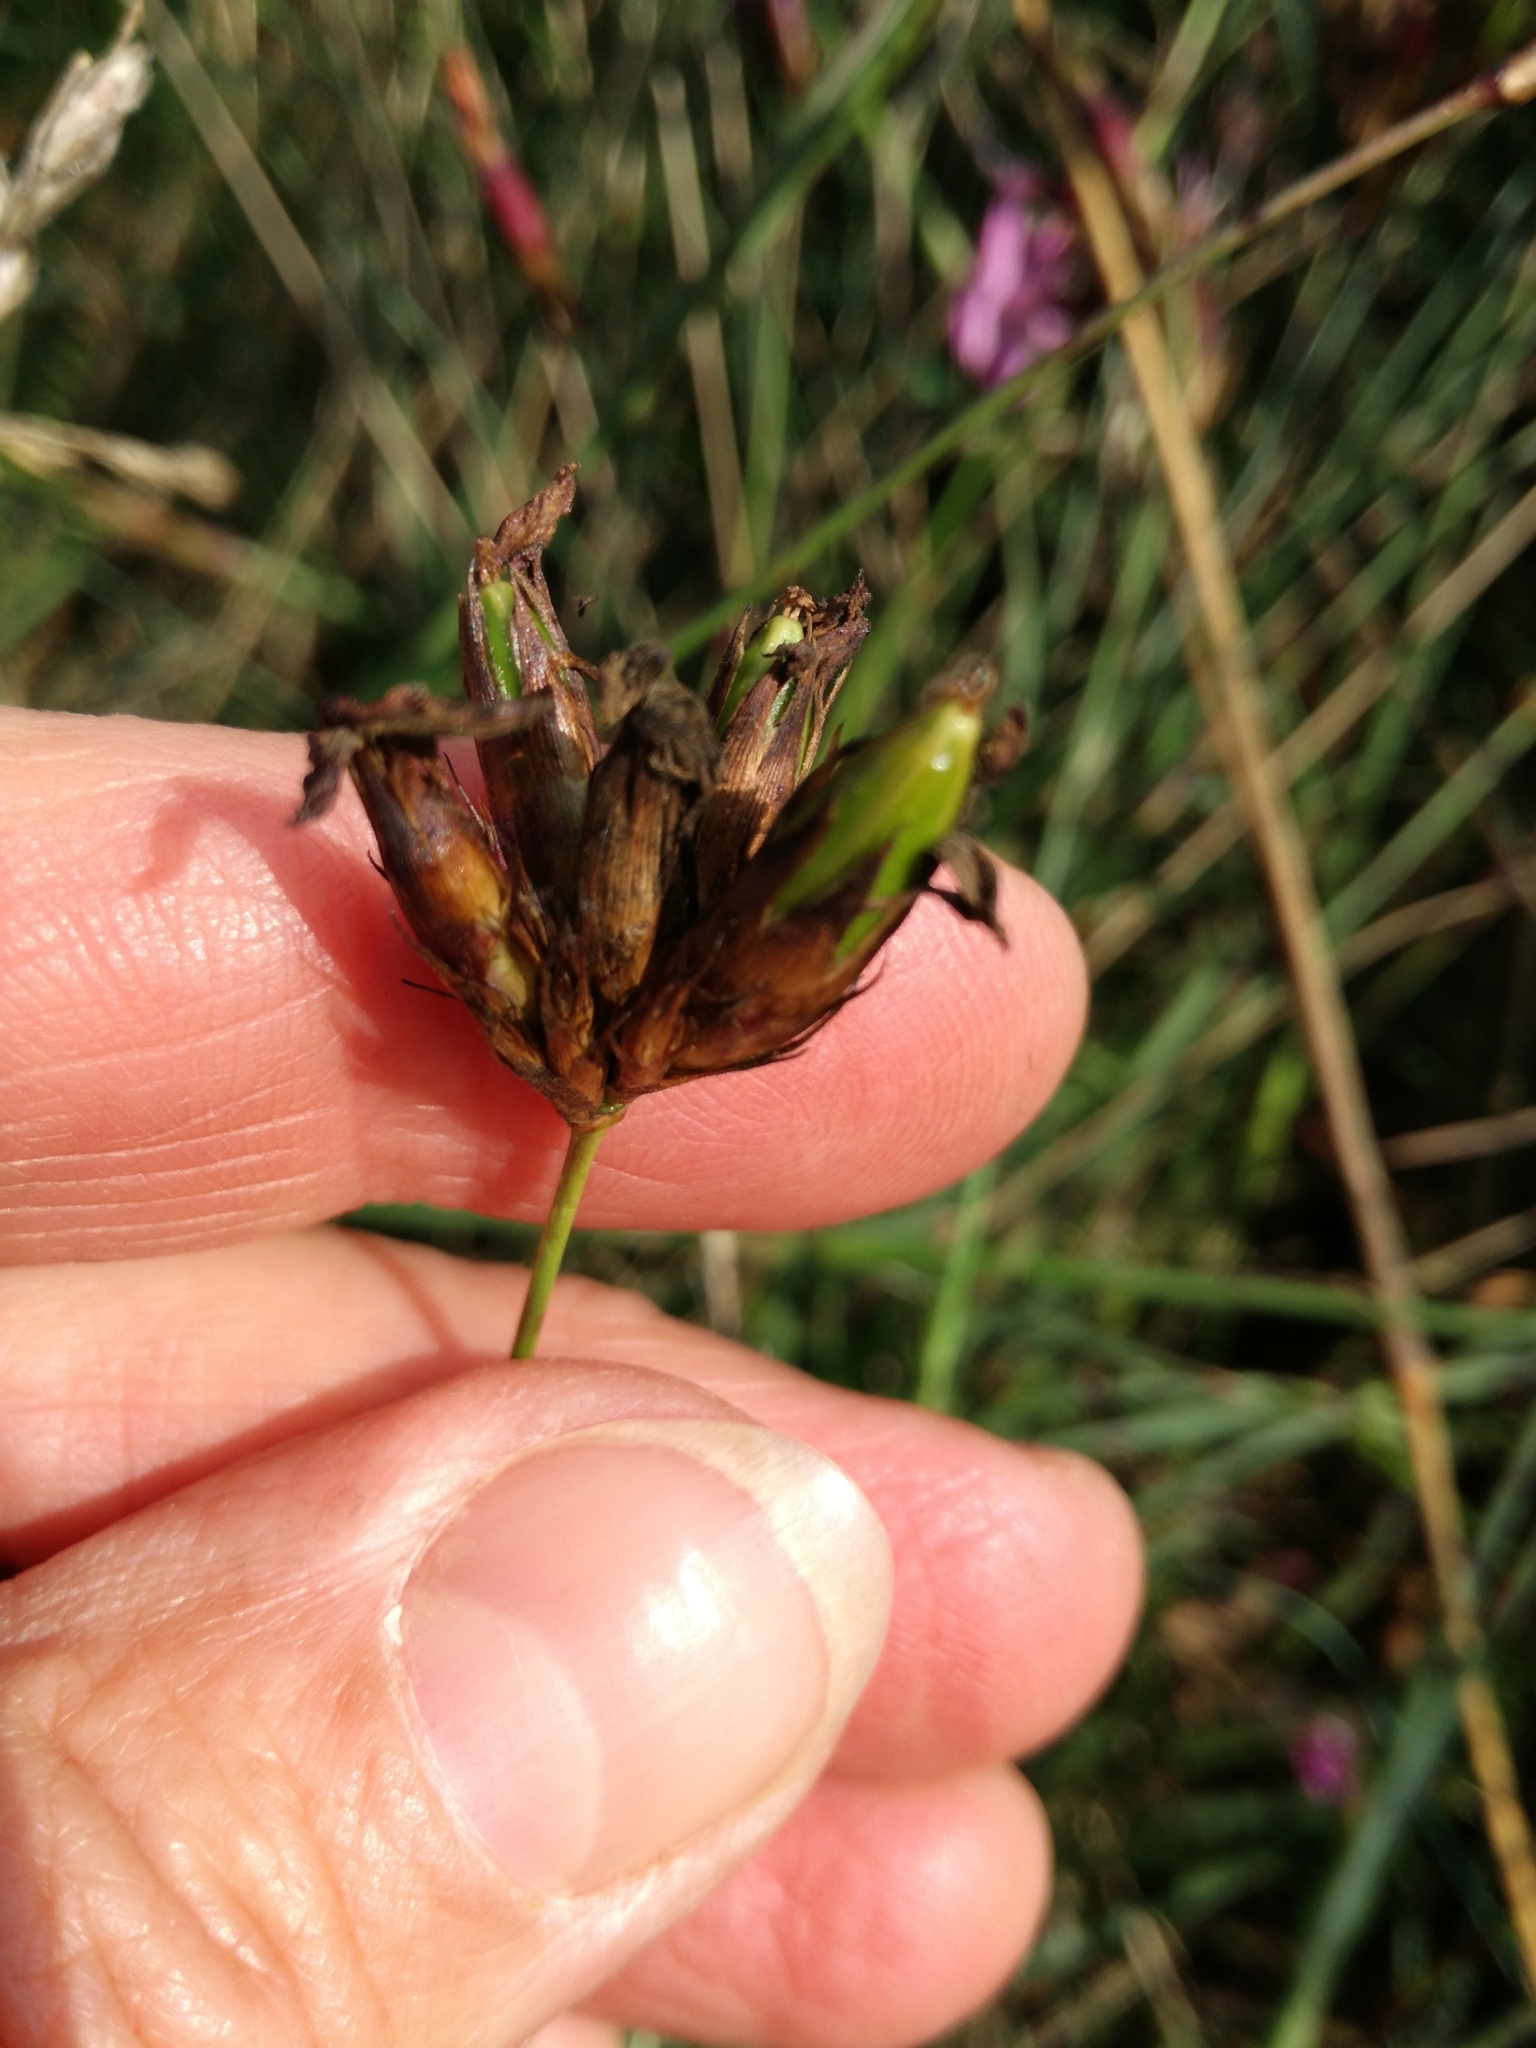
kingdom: Plantae
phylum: Tracheophyta
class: Magnoliopsida
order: Caryophyllales
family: Caryophyllaceae
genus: Dianthus
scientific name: Dianthus carthusianorum
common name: Carthusian pink
